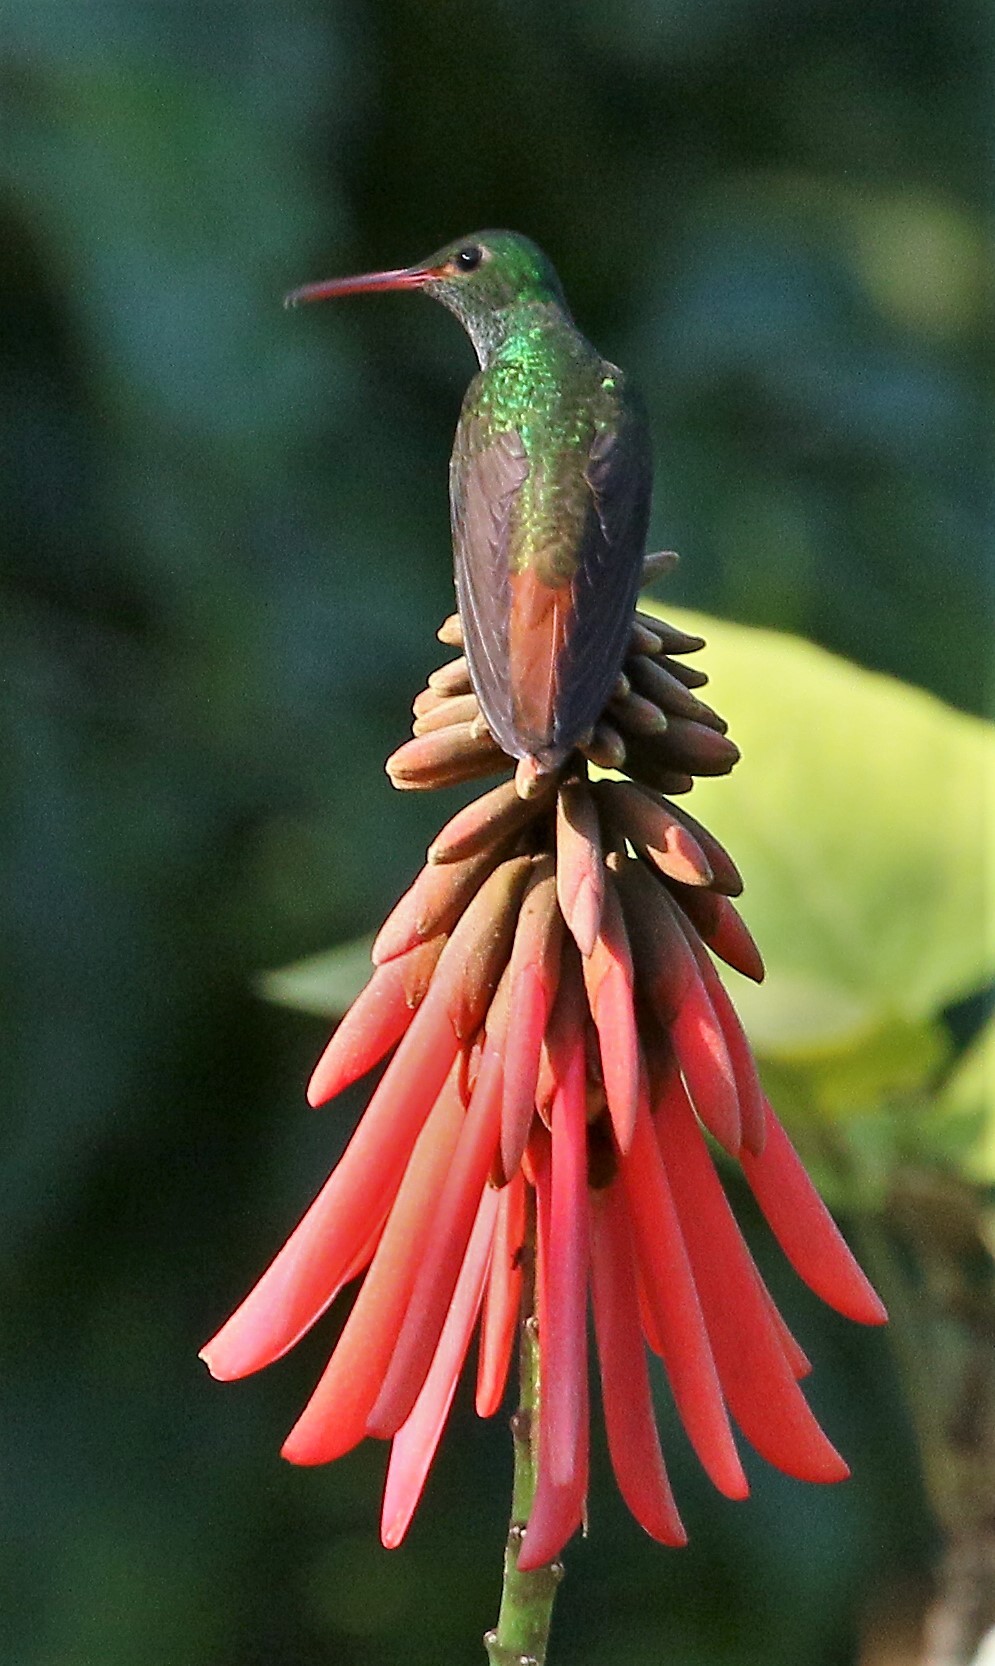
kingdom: Animalia
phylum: Chordata
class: Aves
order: Apodiformes
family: Trochilidae
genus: Amazilia
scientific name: Amazilia tzacatl
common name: Rufous-tailed hummingbird
